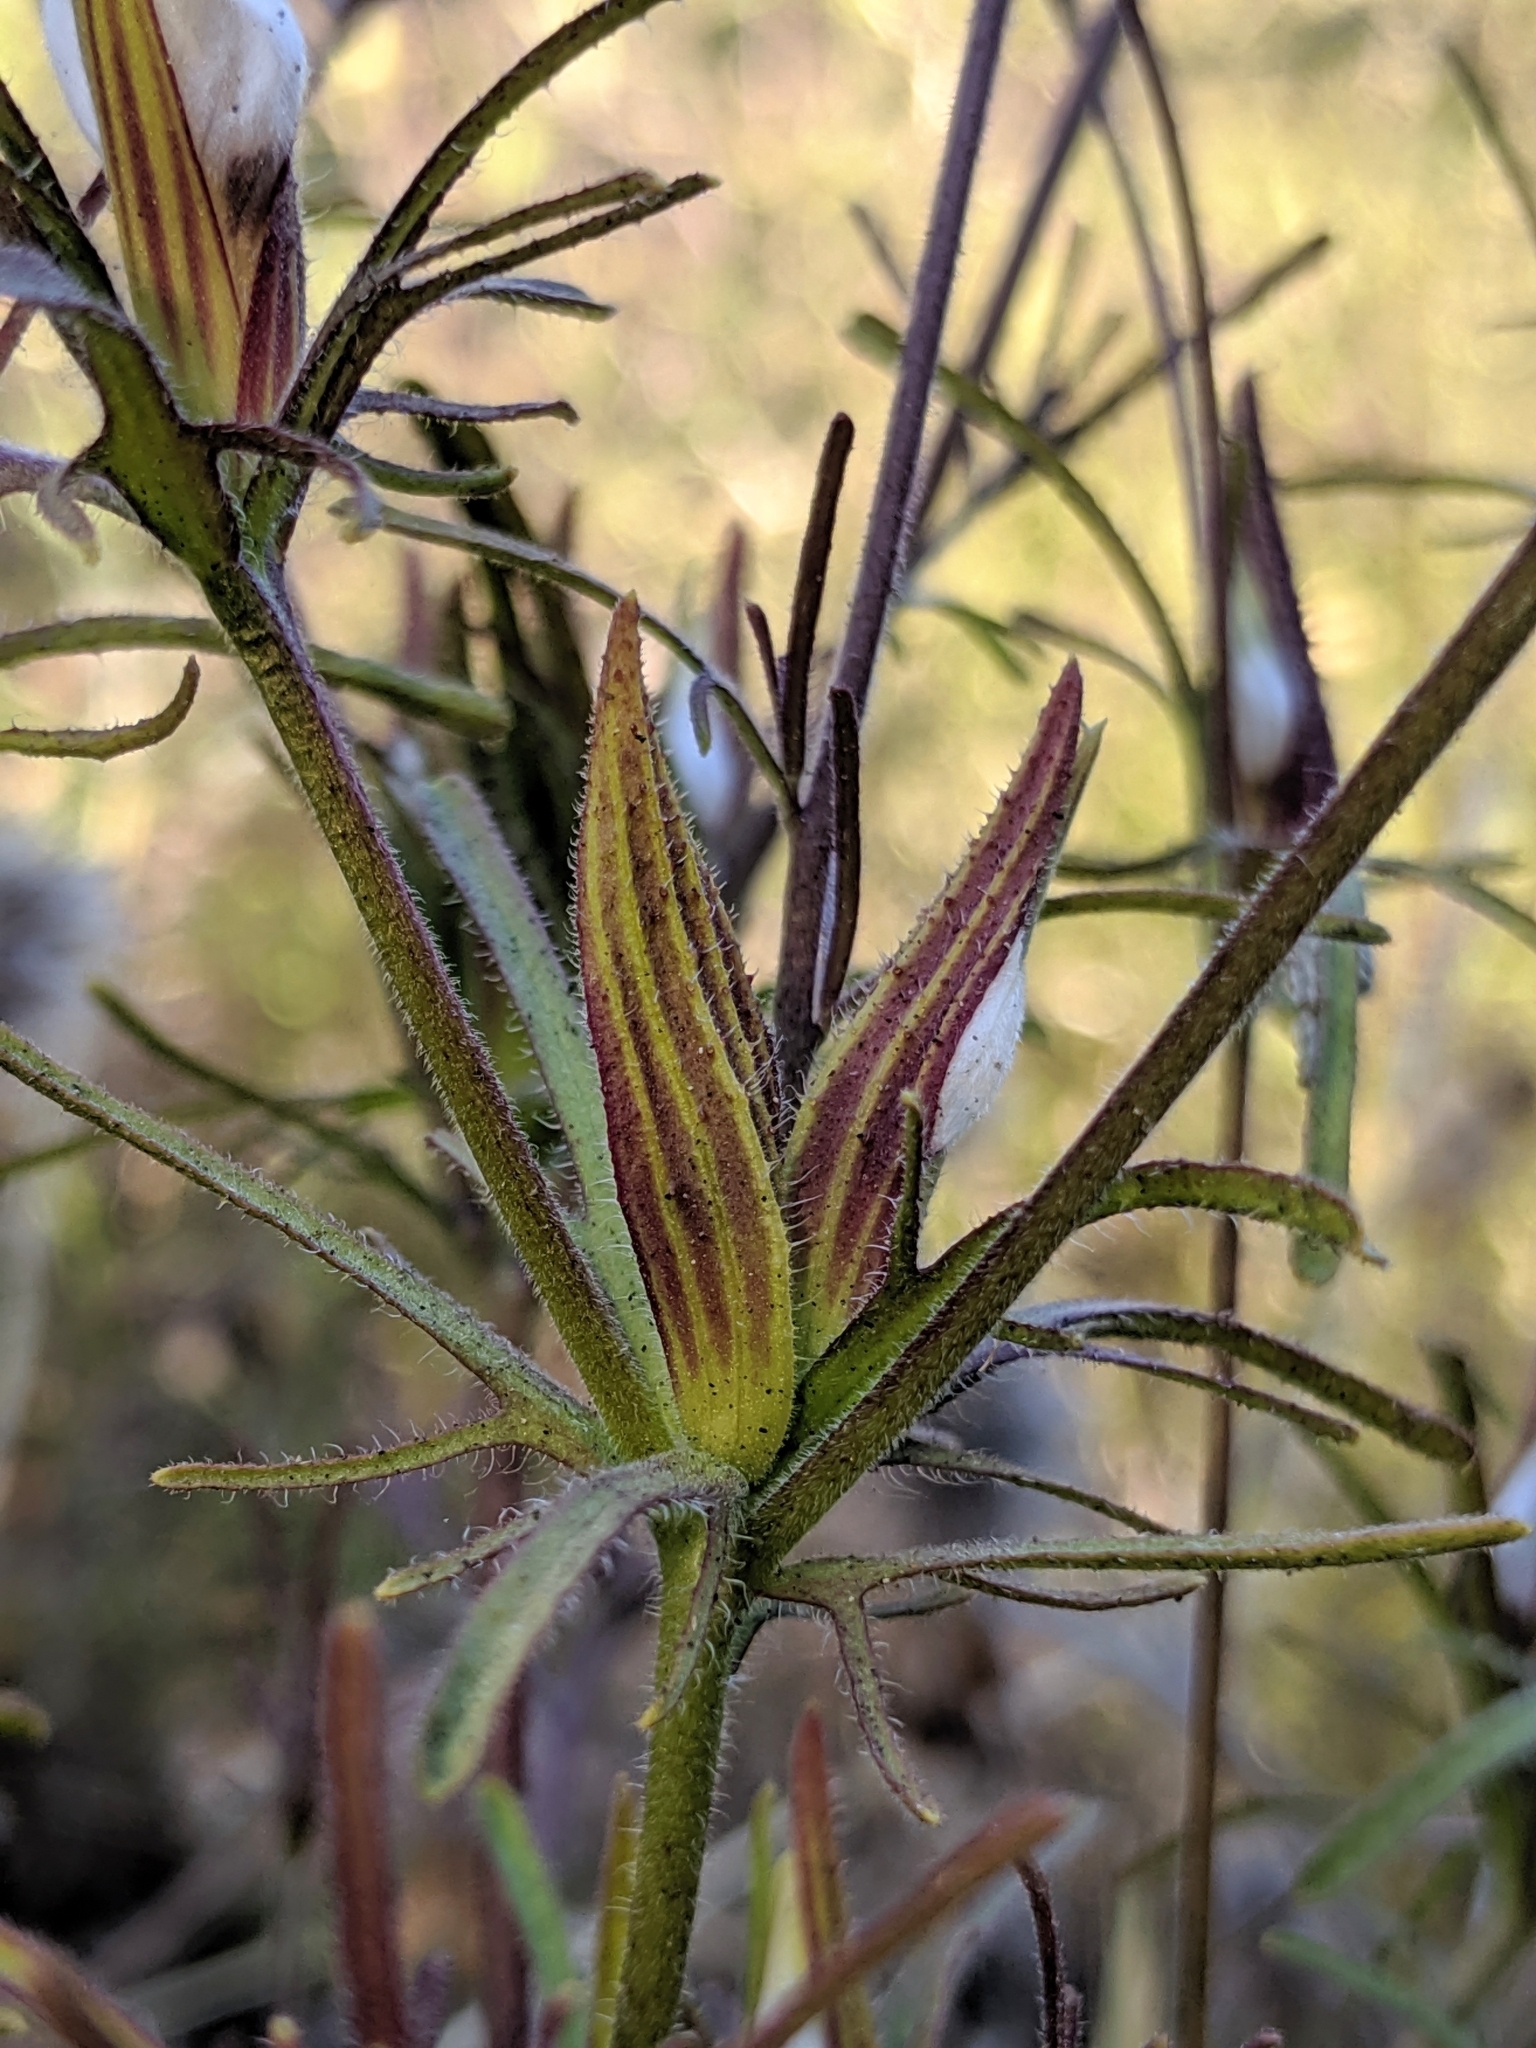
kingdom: Plantae
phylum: Tracheophyta
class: Magnoliopsida
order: Lamiales
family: Orobanchaceae
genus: Cordylanthus
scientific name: Cordylanthus rigidus
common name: Stiff-branch bird's-beak
